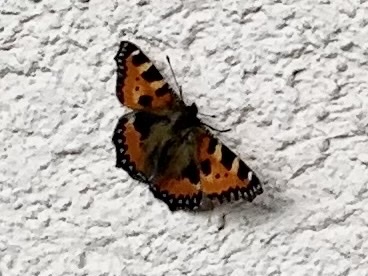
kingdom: Animalia
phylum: Arthropoda
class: Insecta
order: Lepidoptera
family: Nymphalidae
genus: Aglais
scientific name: Aglais urticae
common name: Small tortoiseshell
